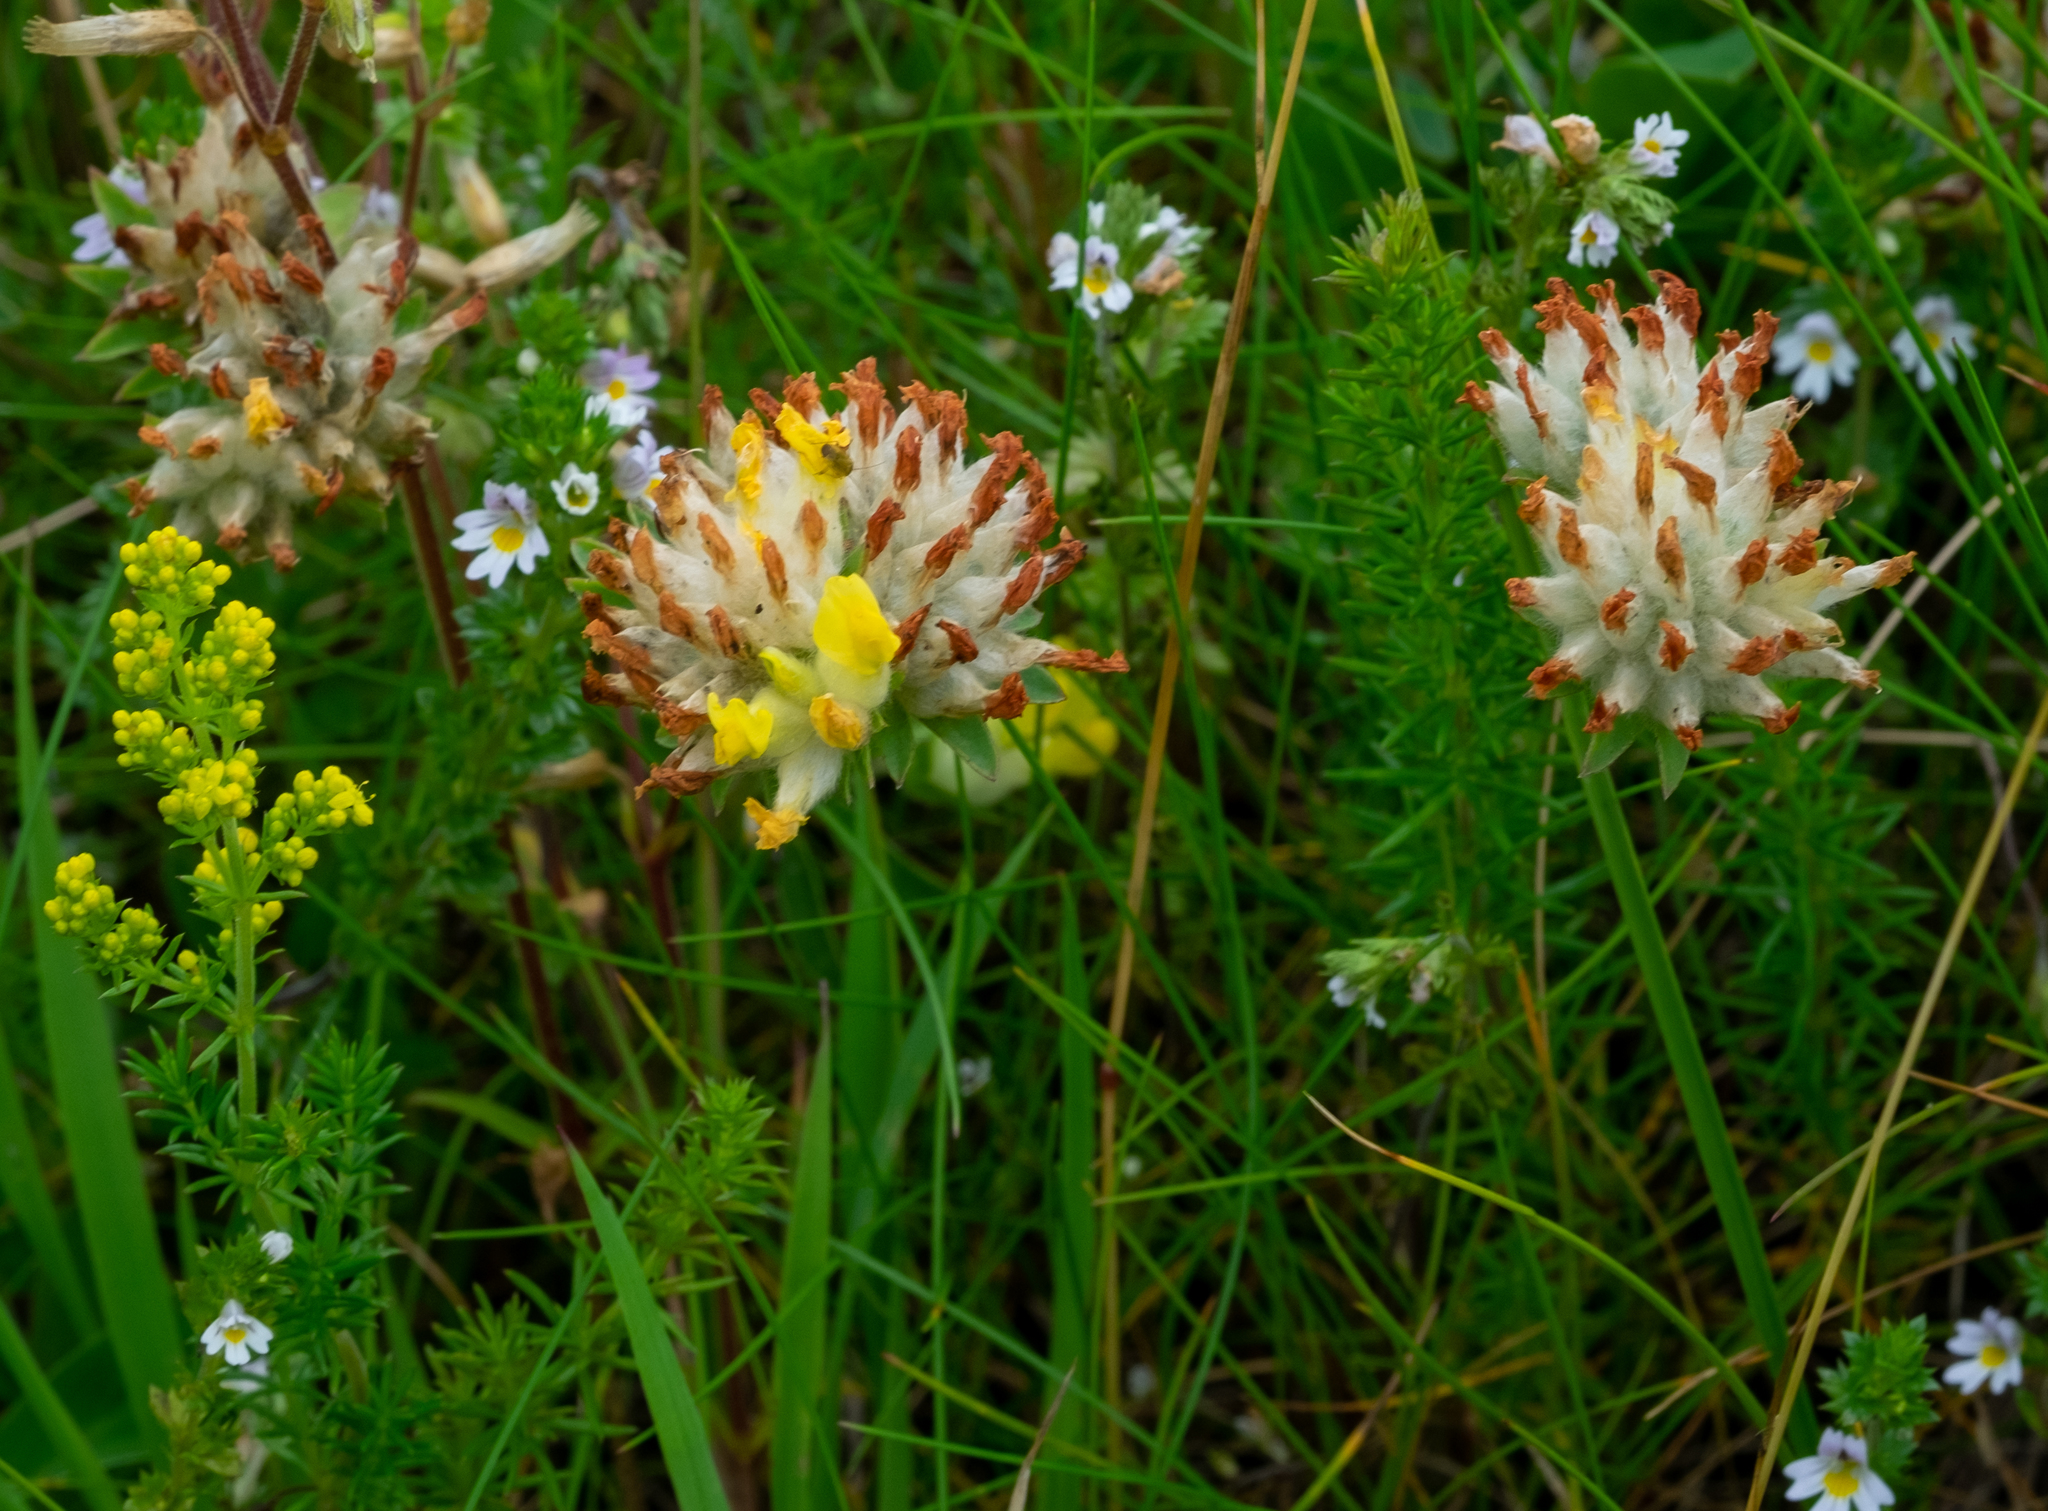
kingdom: Plantae
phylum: Tracheophyta
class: Magnoliopsida
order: Fabales
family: Fabaceae
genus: Anthyllis
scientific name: Anthyllis vulneraria
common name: Kidney vetch
